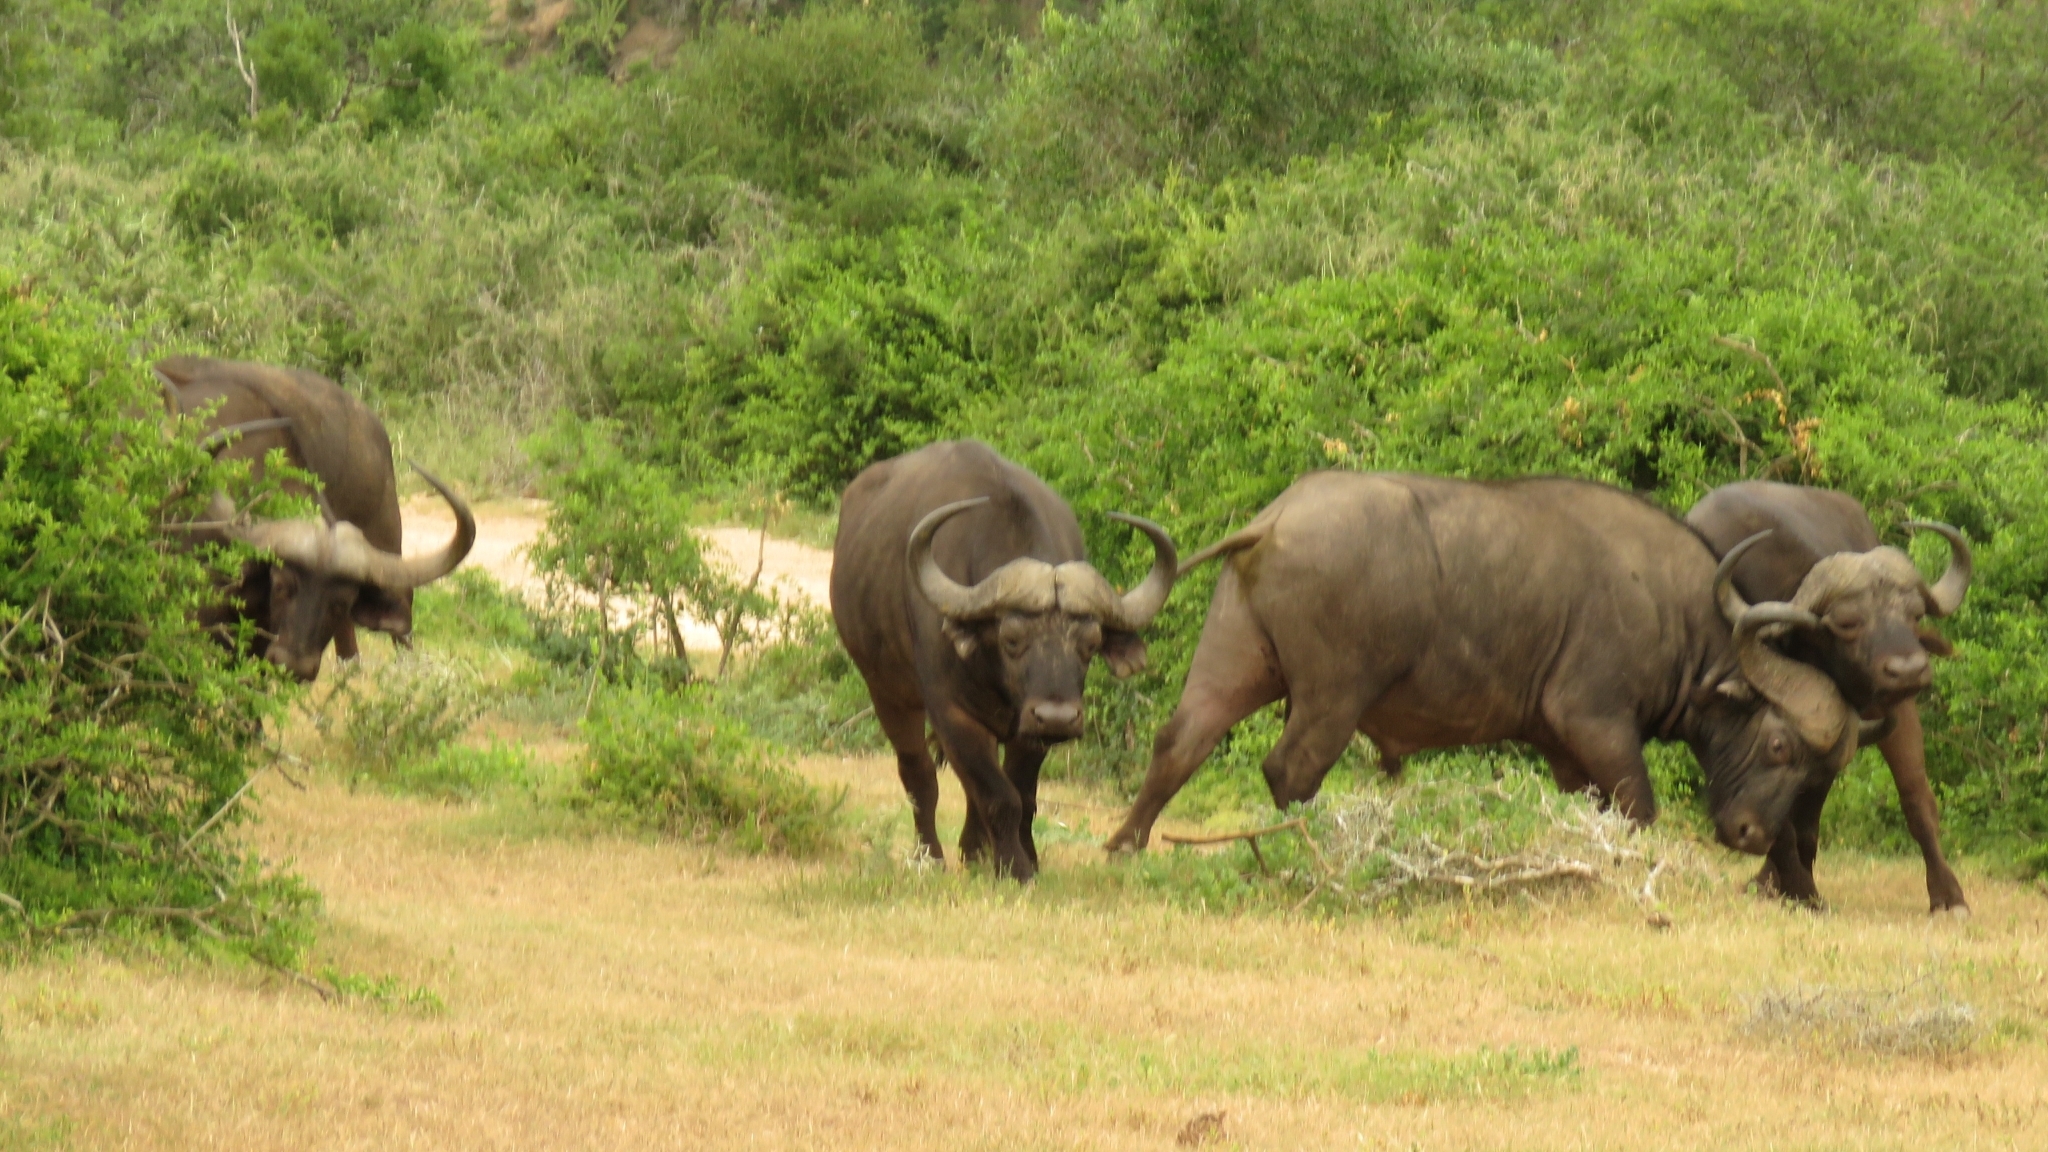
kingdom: Animalia
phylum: Chordata
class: Mammalia
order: Artiodactyla
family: Bovidae
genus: Syncerus
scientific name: Syncerus caffer
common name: African buffalo
